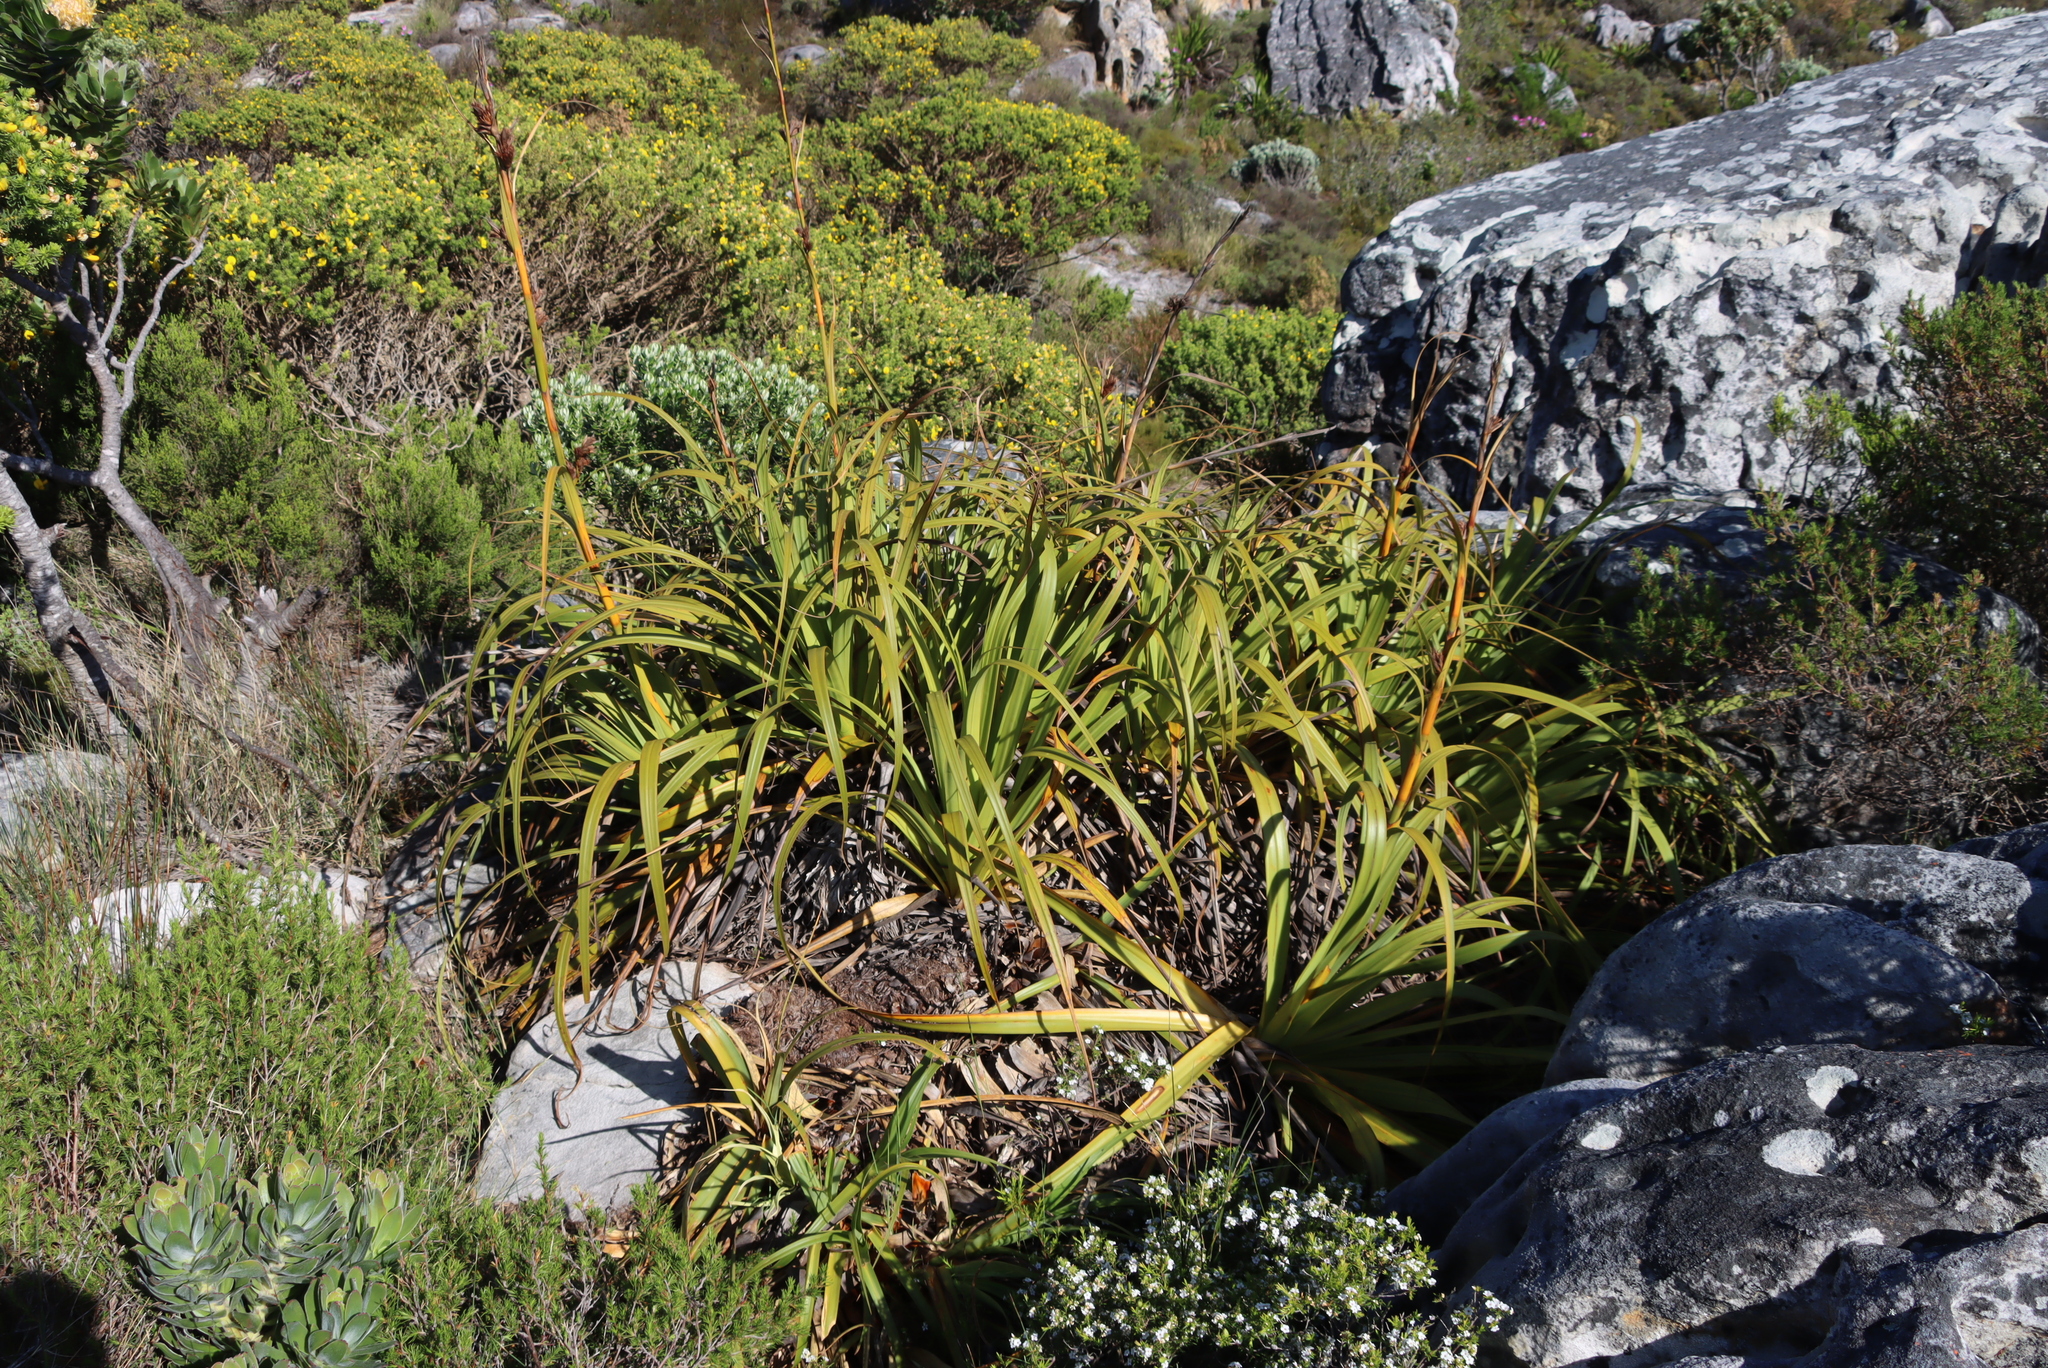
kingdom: Plantae
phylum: Tracheophyta
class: Liliopsida
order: Poales
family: Cyperaceae
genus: Tetraria
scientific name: Tetraria thermalis
